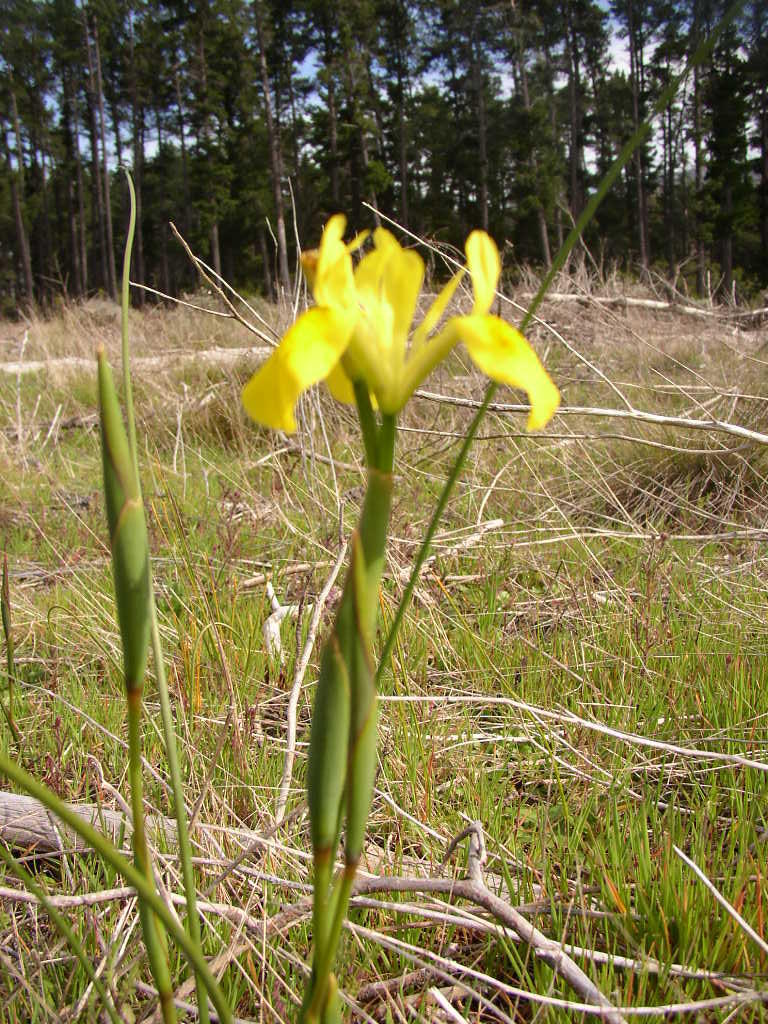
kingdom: Plantae
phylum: Tracheophyta
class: Liliopsida
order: Asparagales
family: Iridaceae
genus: Moraea
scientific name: Moraea neglecta
